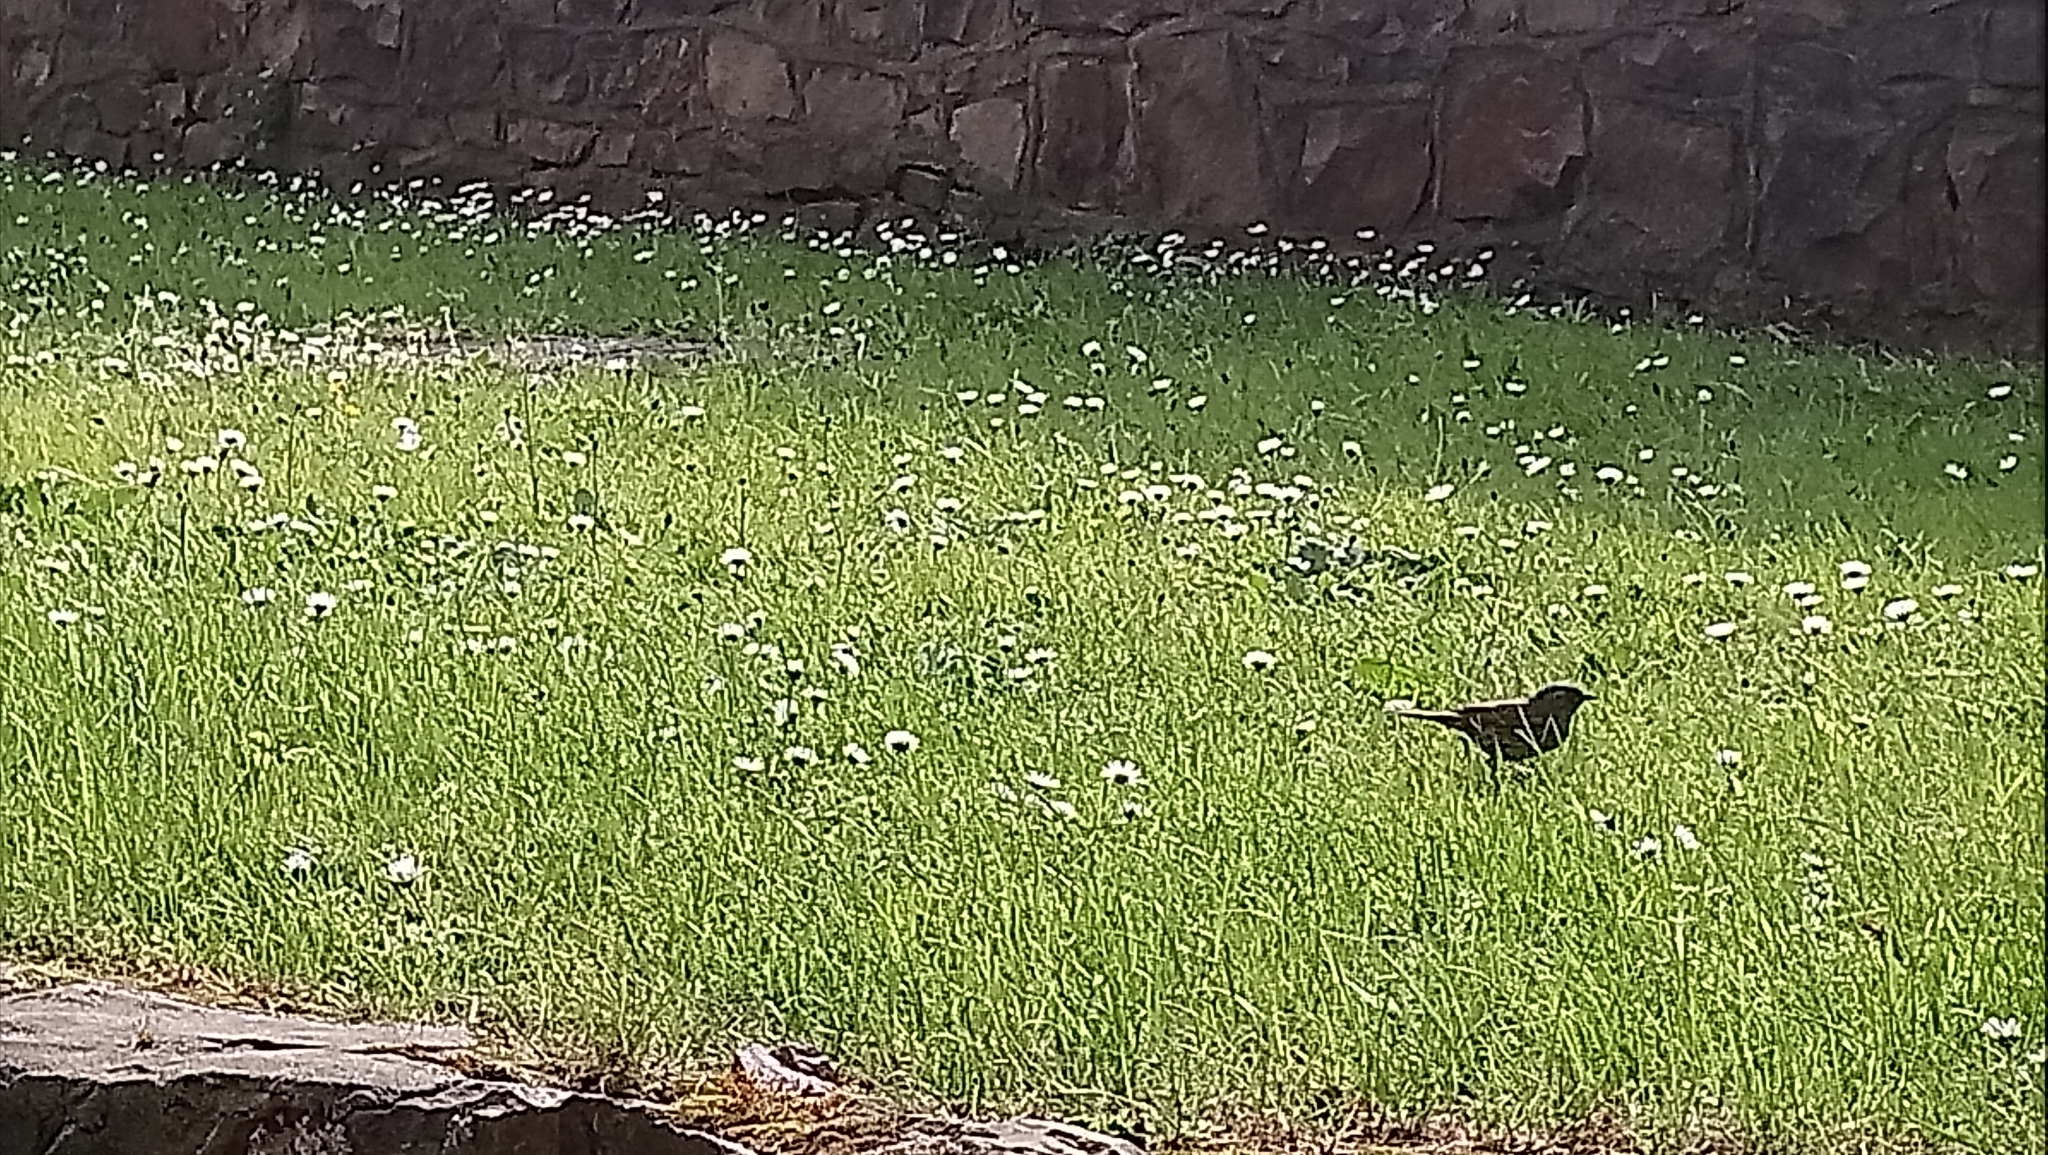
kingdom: Animalia
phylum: Chordata
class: Aves
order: Passeriformes
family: Prunellidae
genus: Prunella
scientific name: Prunella modularis
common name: Dunnock
